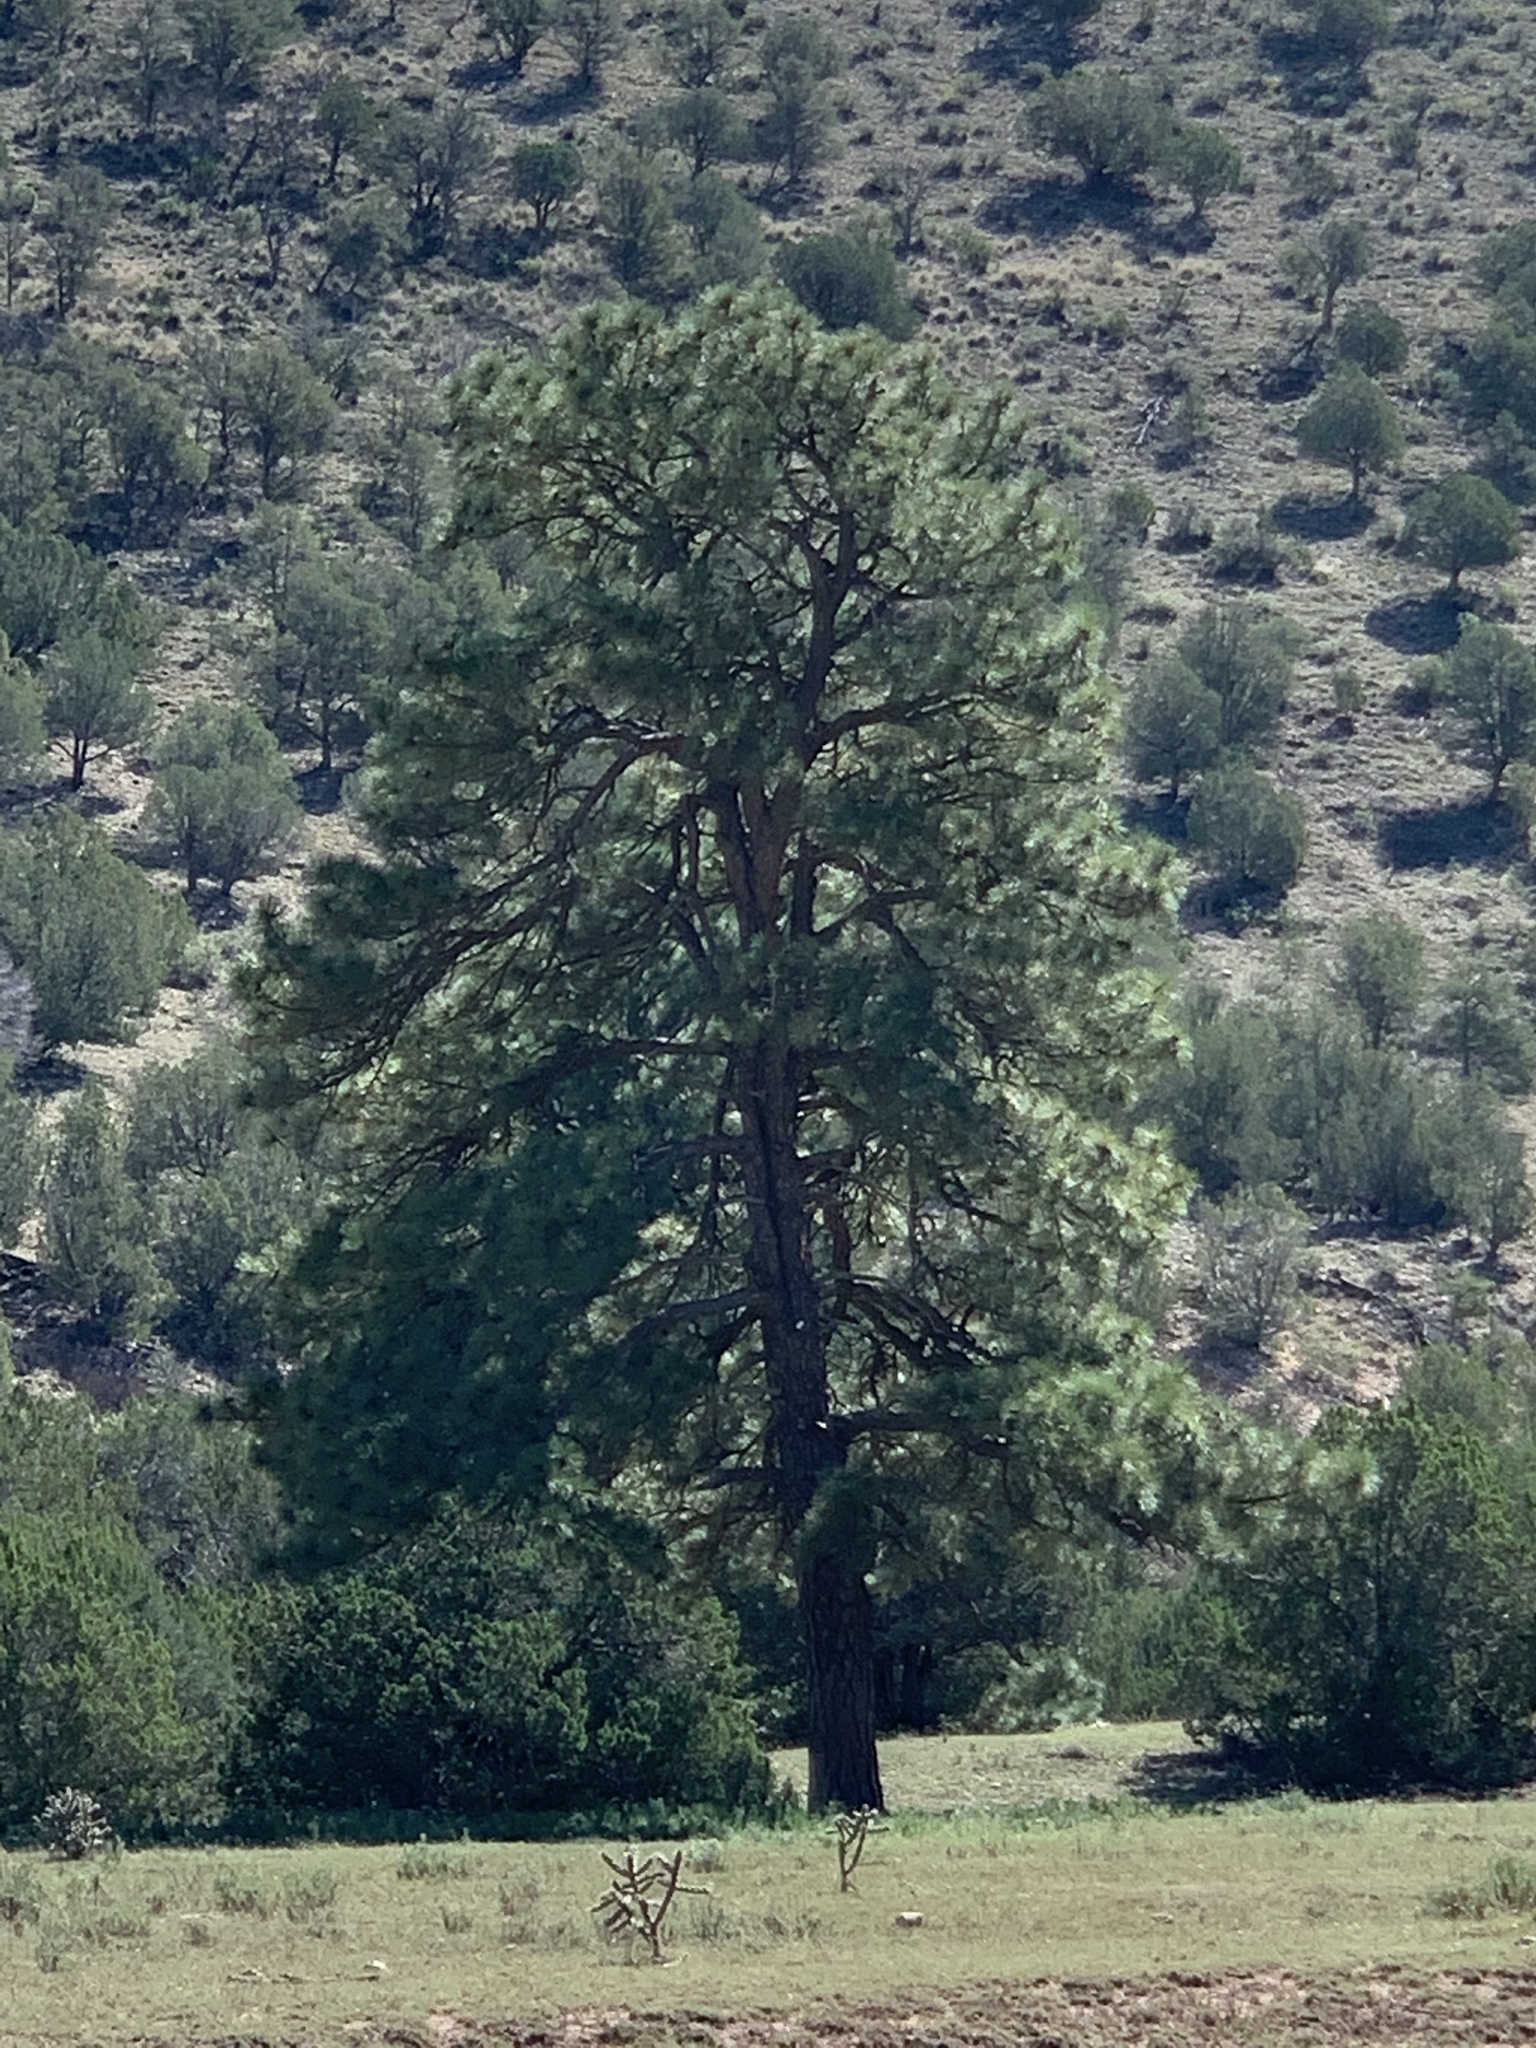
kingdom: Plantae
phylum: Tracheophyta
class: Pinopsida
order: Pinales
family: Pinaceae
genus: Pinus
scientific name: Pinus ponderosa
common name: Western yellow-pine
